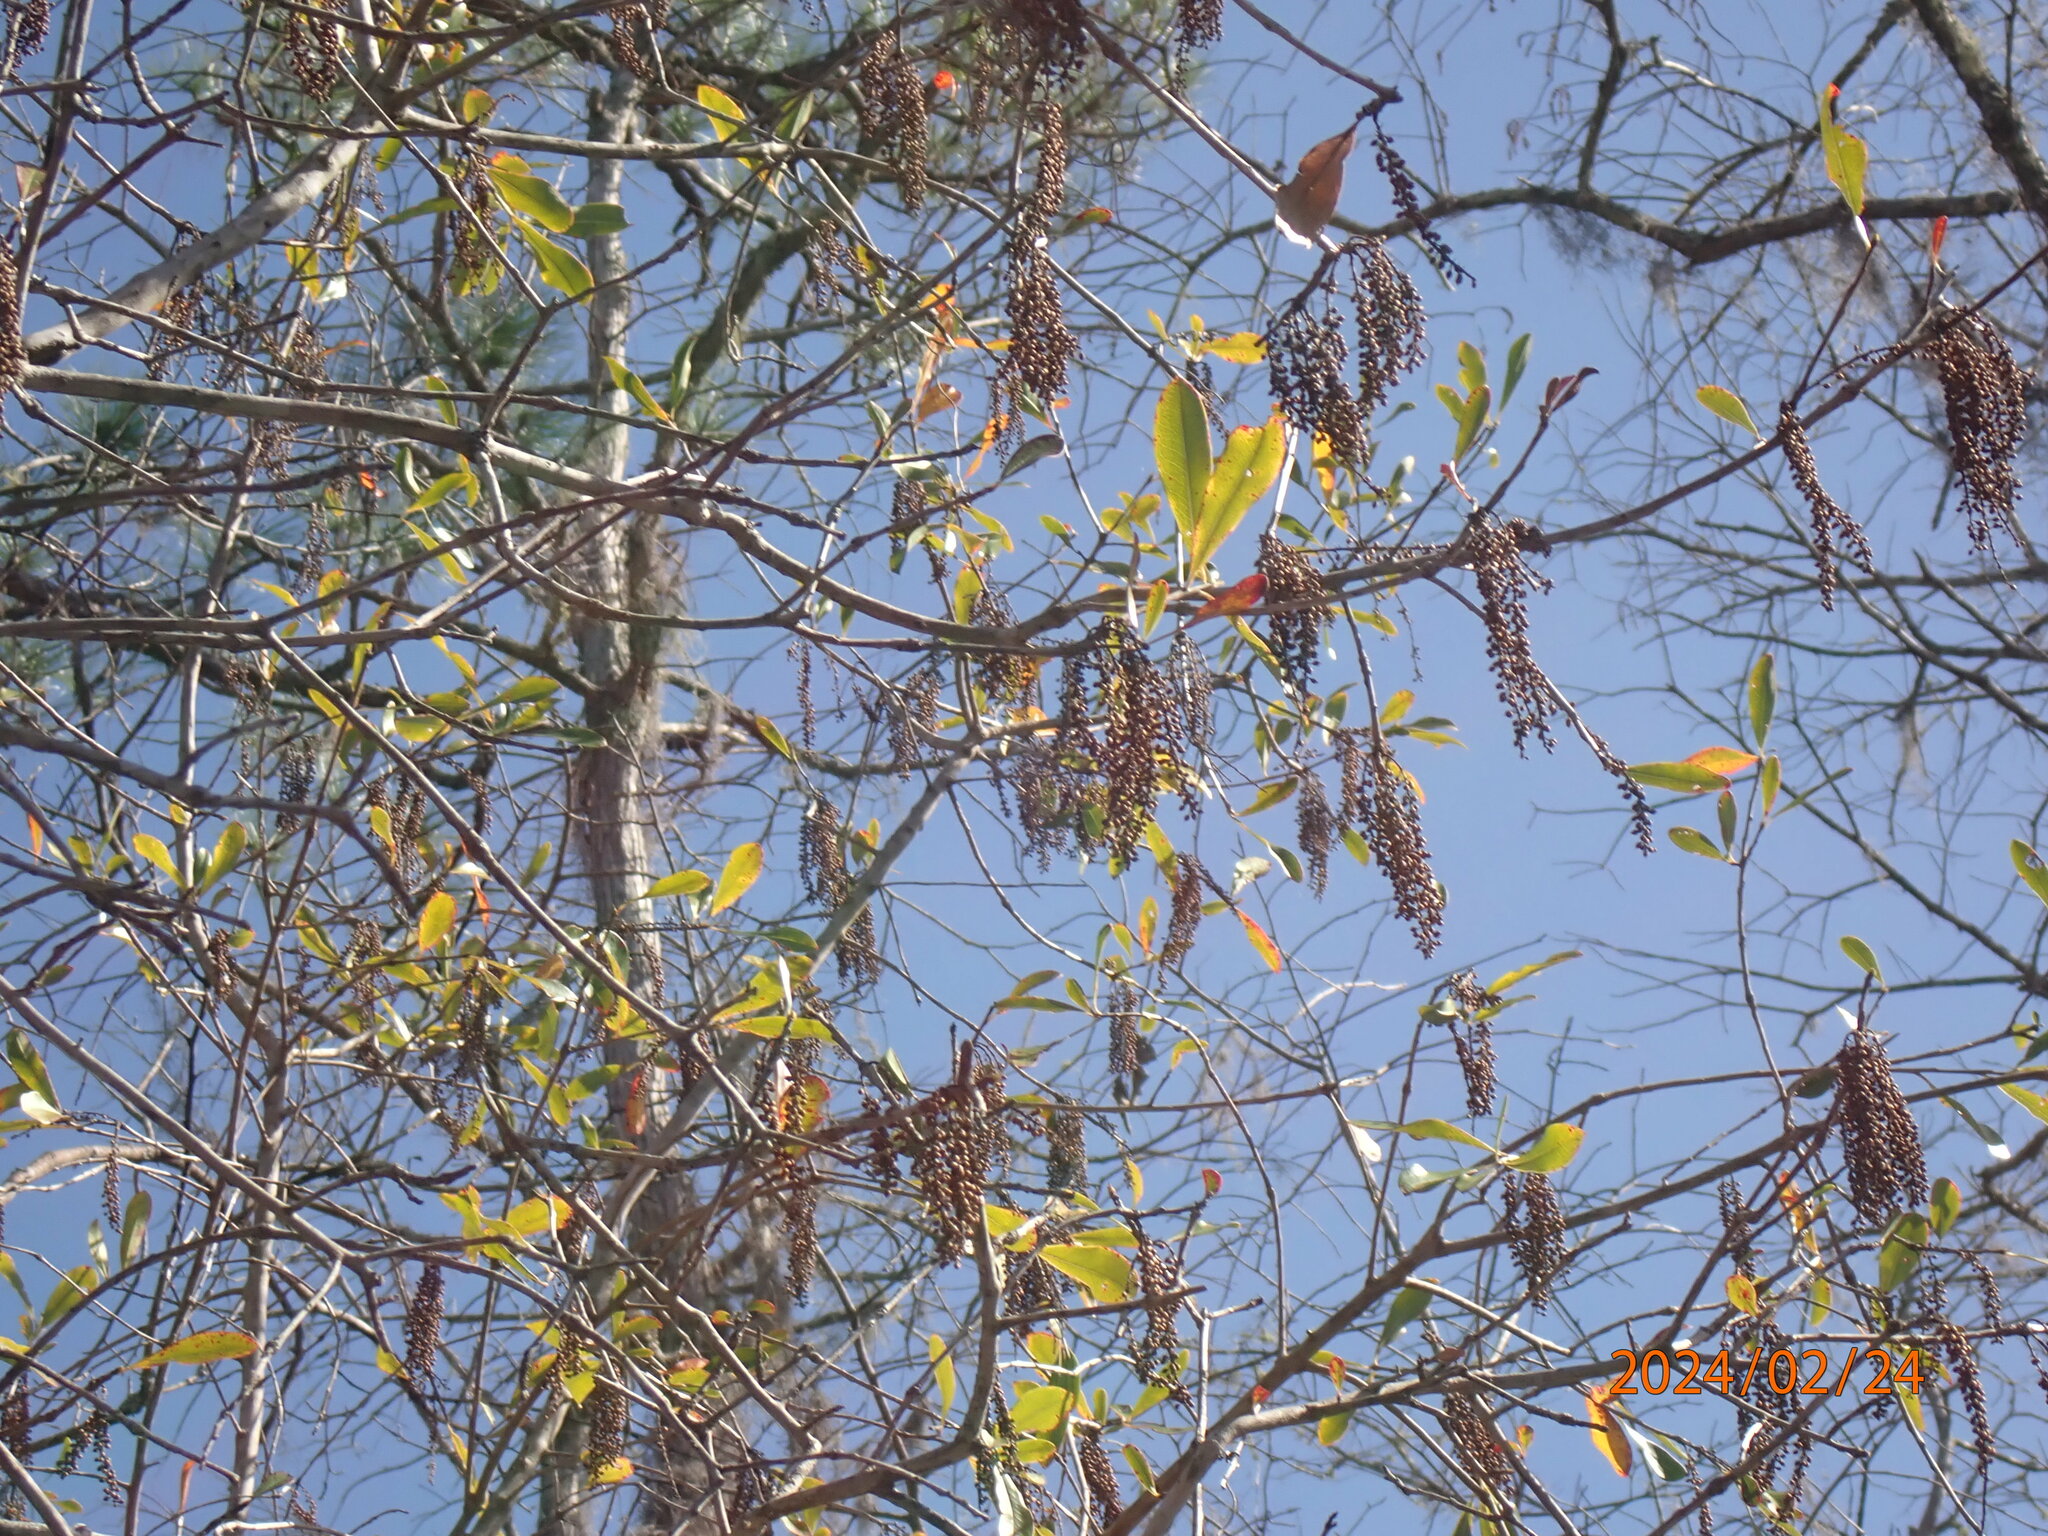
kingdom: Plantae
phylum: Tracheophyta
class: Magnoliopsida
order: Ericales
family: Cyrillaceae
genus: Cyrilla
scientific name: Cyrilla racemiflora
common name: Black titi
